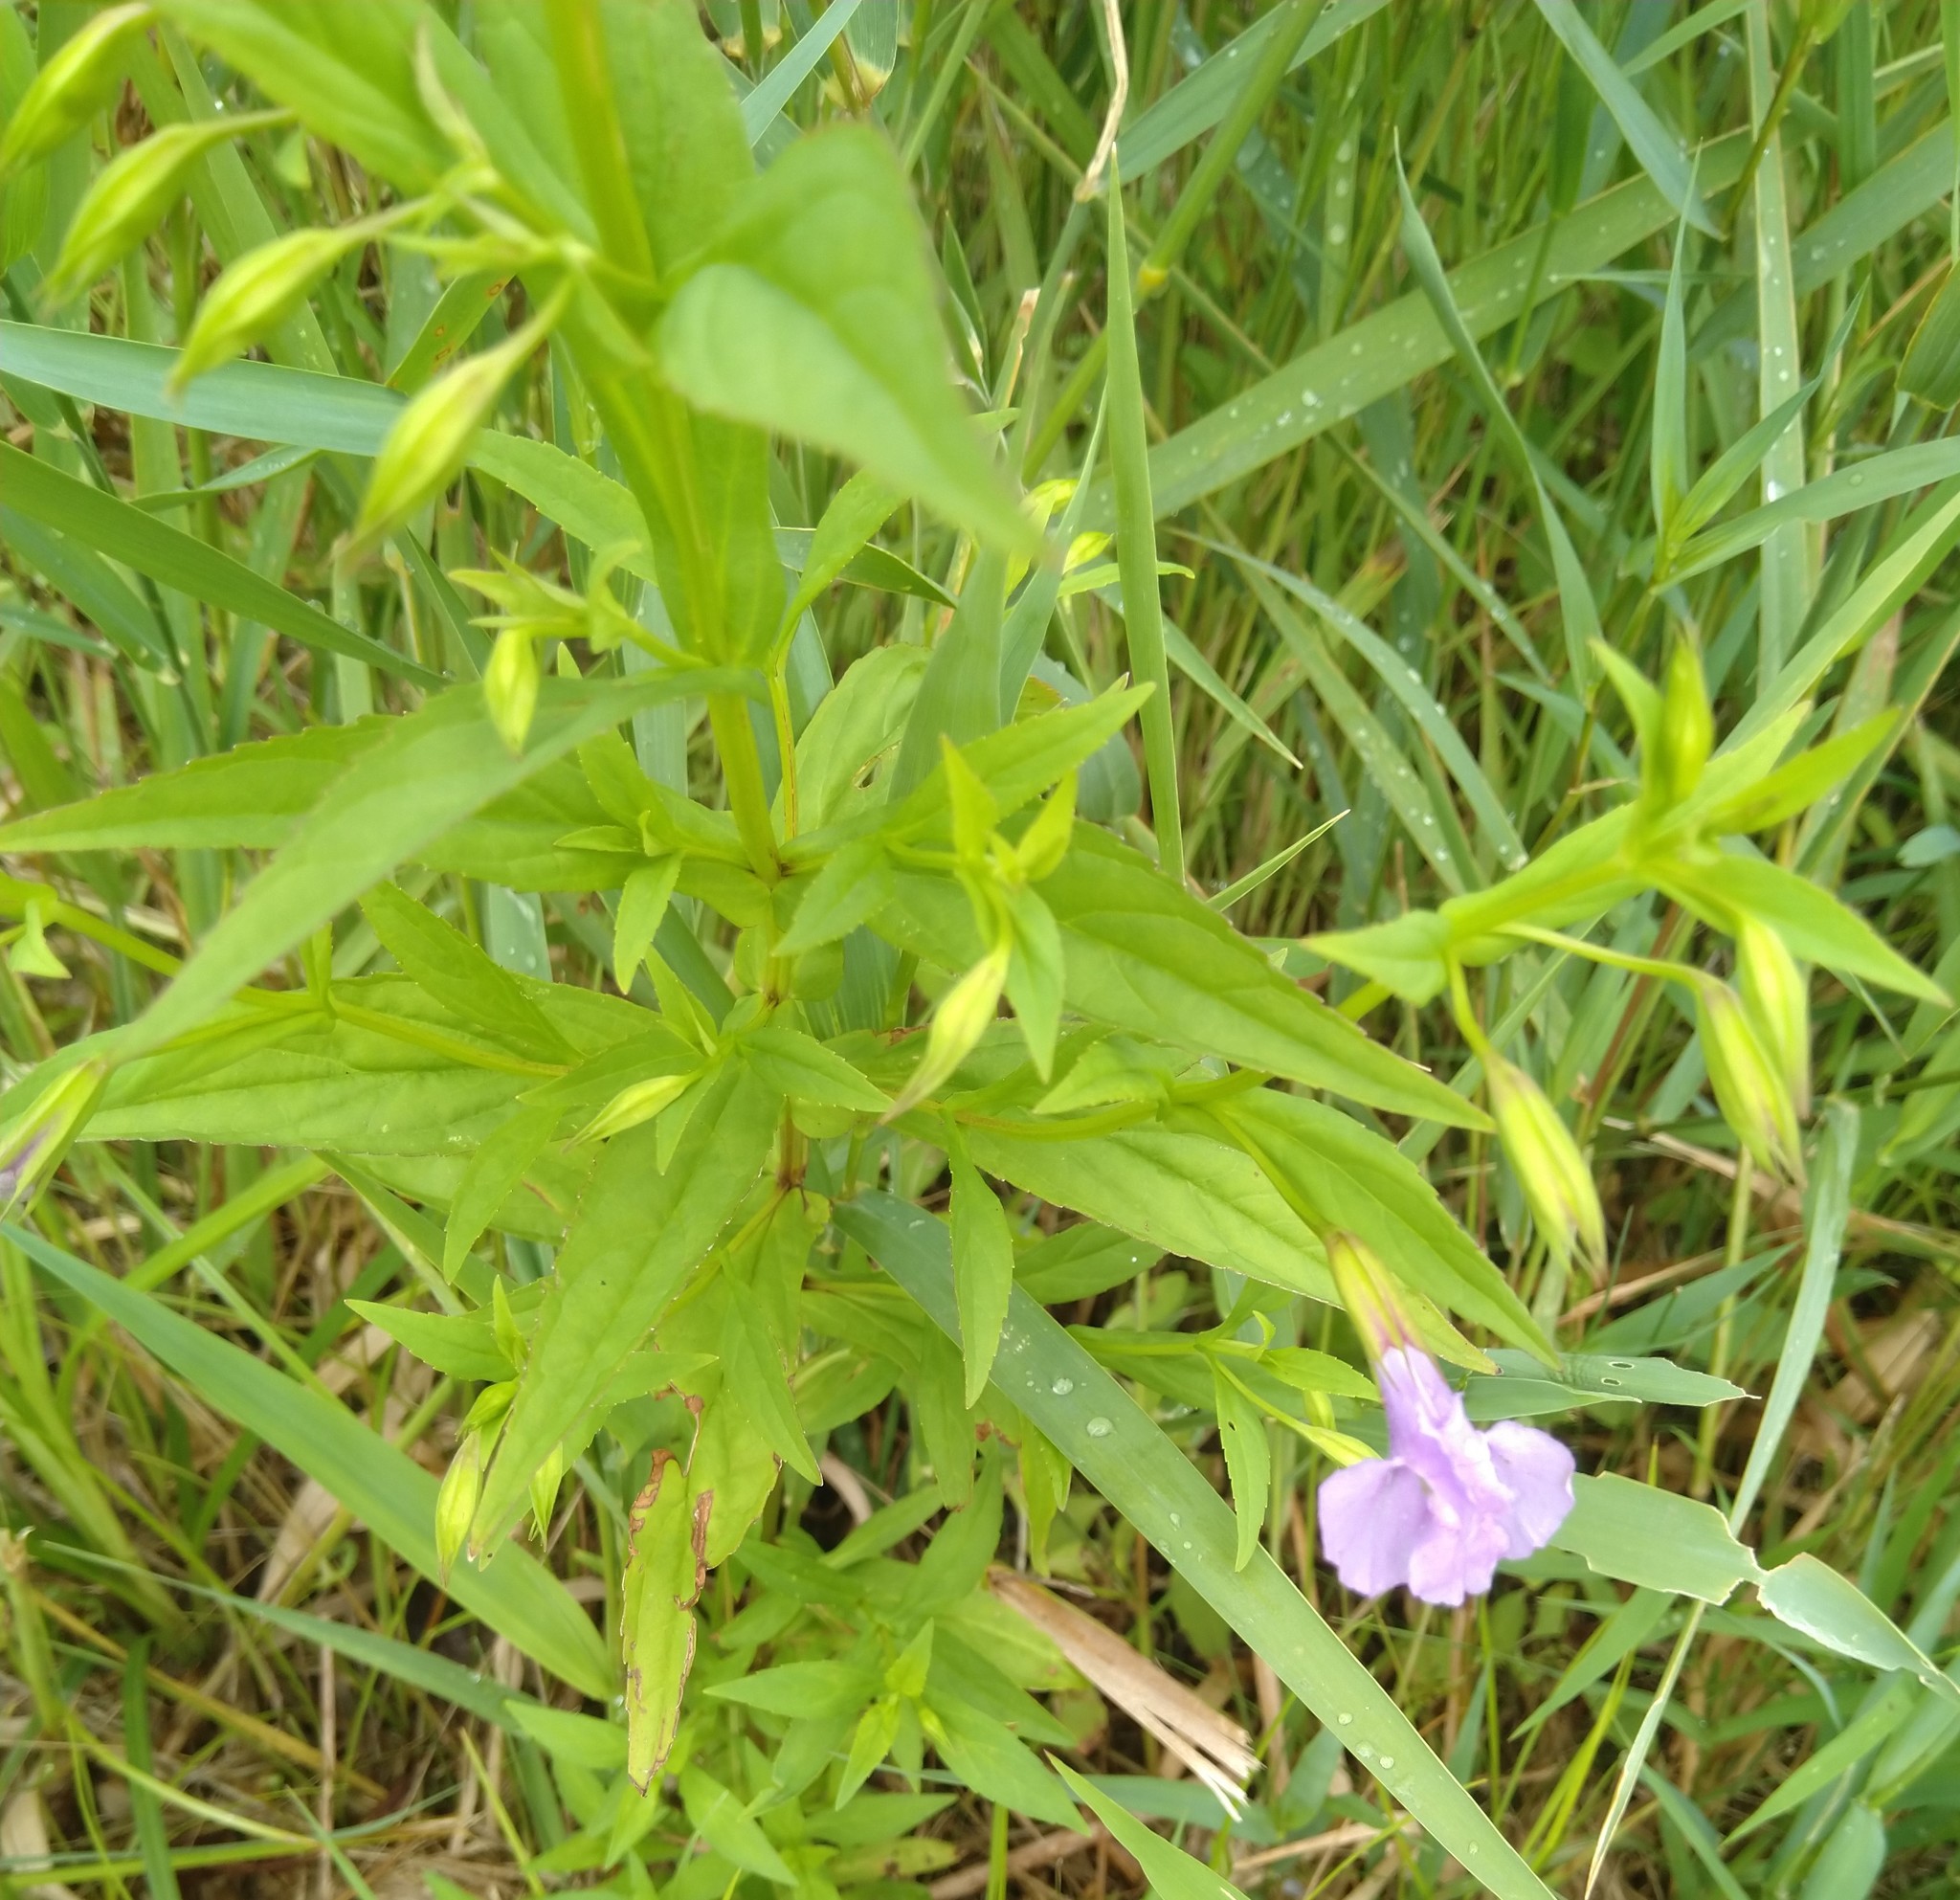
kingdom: Plantae
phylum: Tracheophyta
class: Magnoliopsida
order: Lamiales
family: Phrymaceae
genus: Mimulus
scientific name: Mimulus ringens
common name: Allegheny monkeyflower
